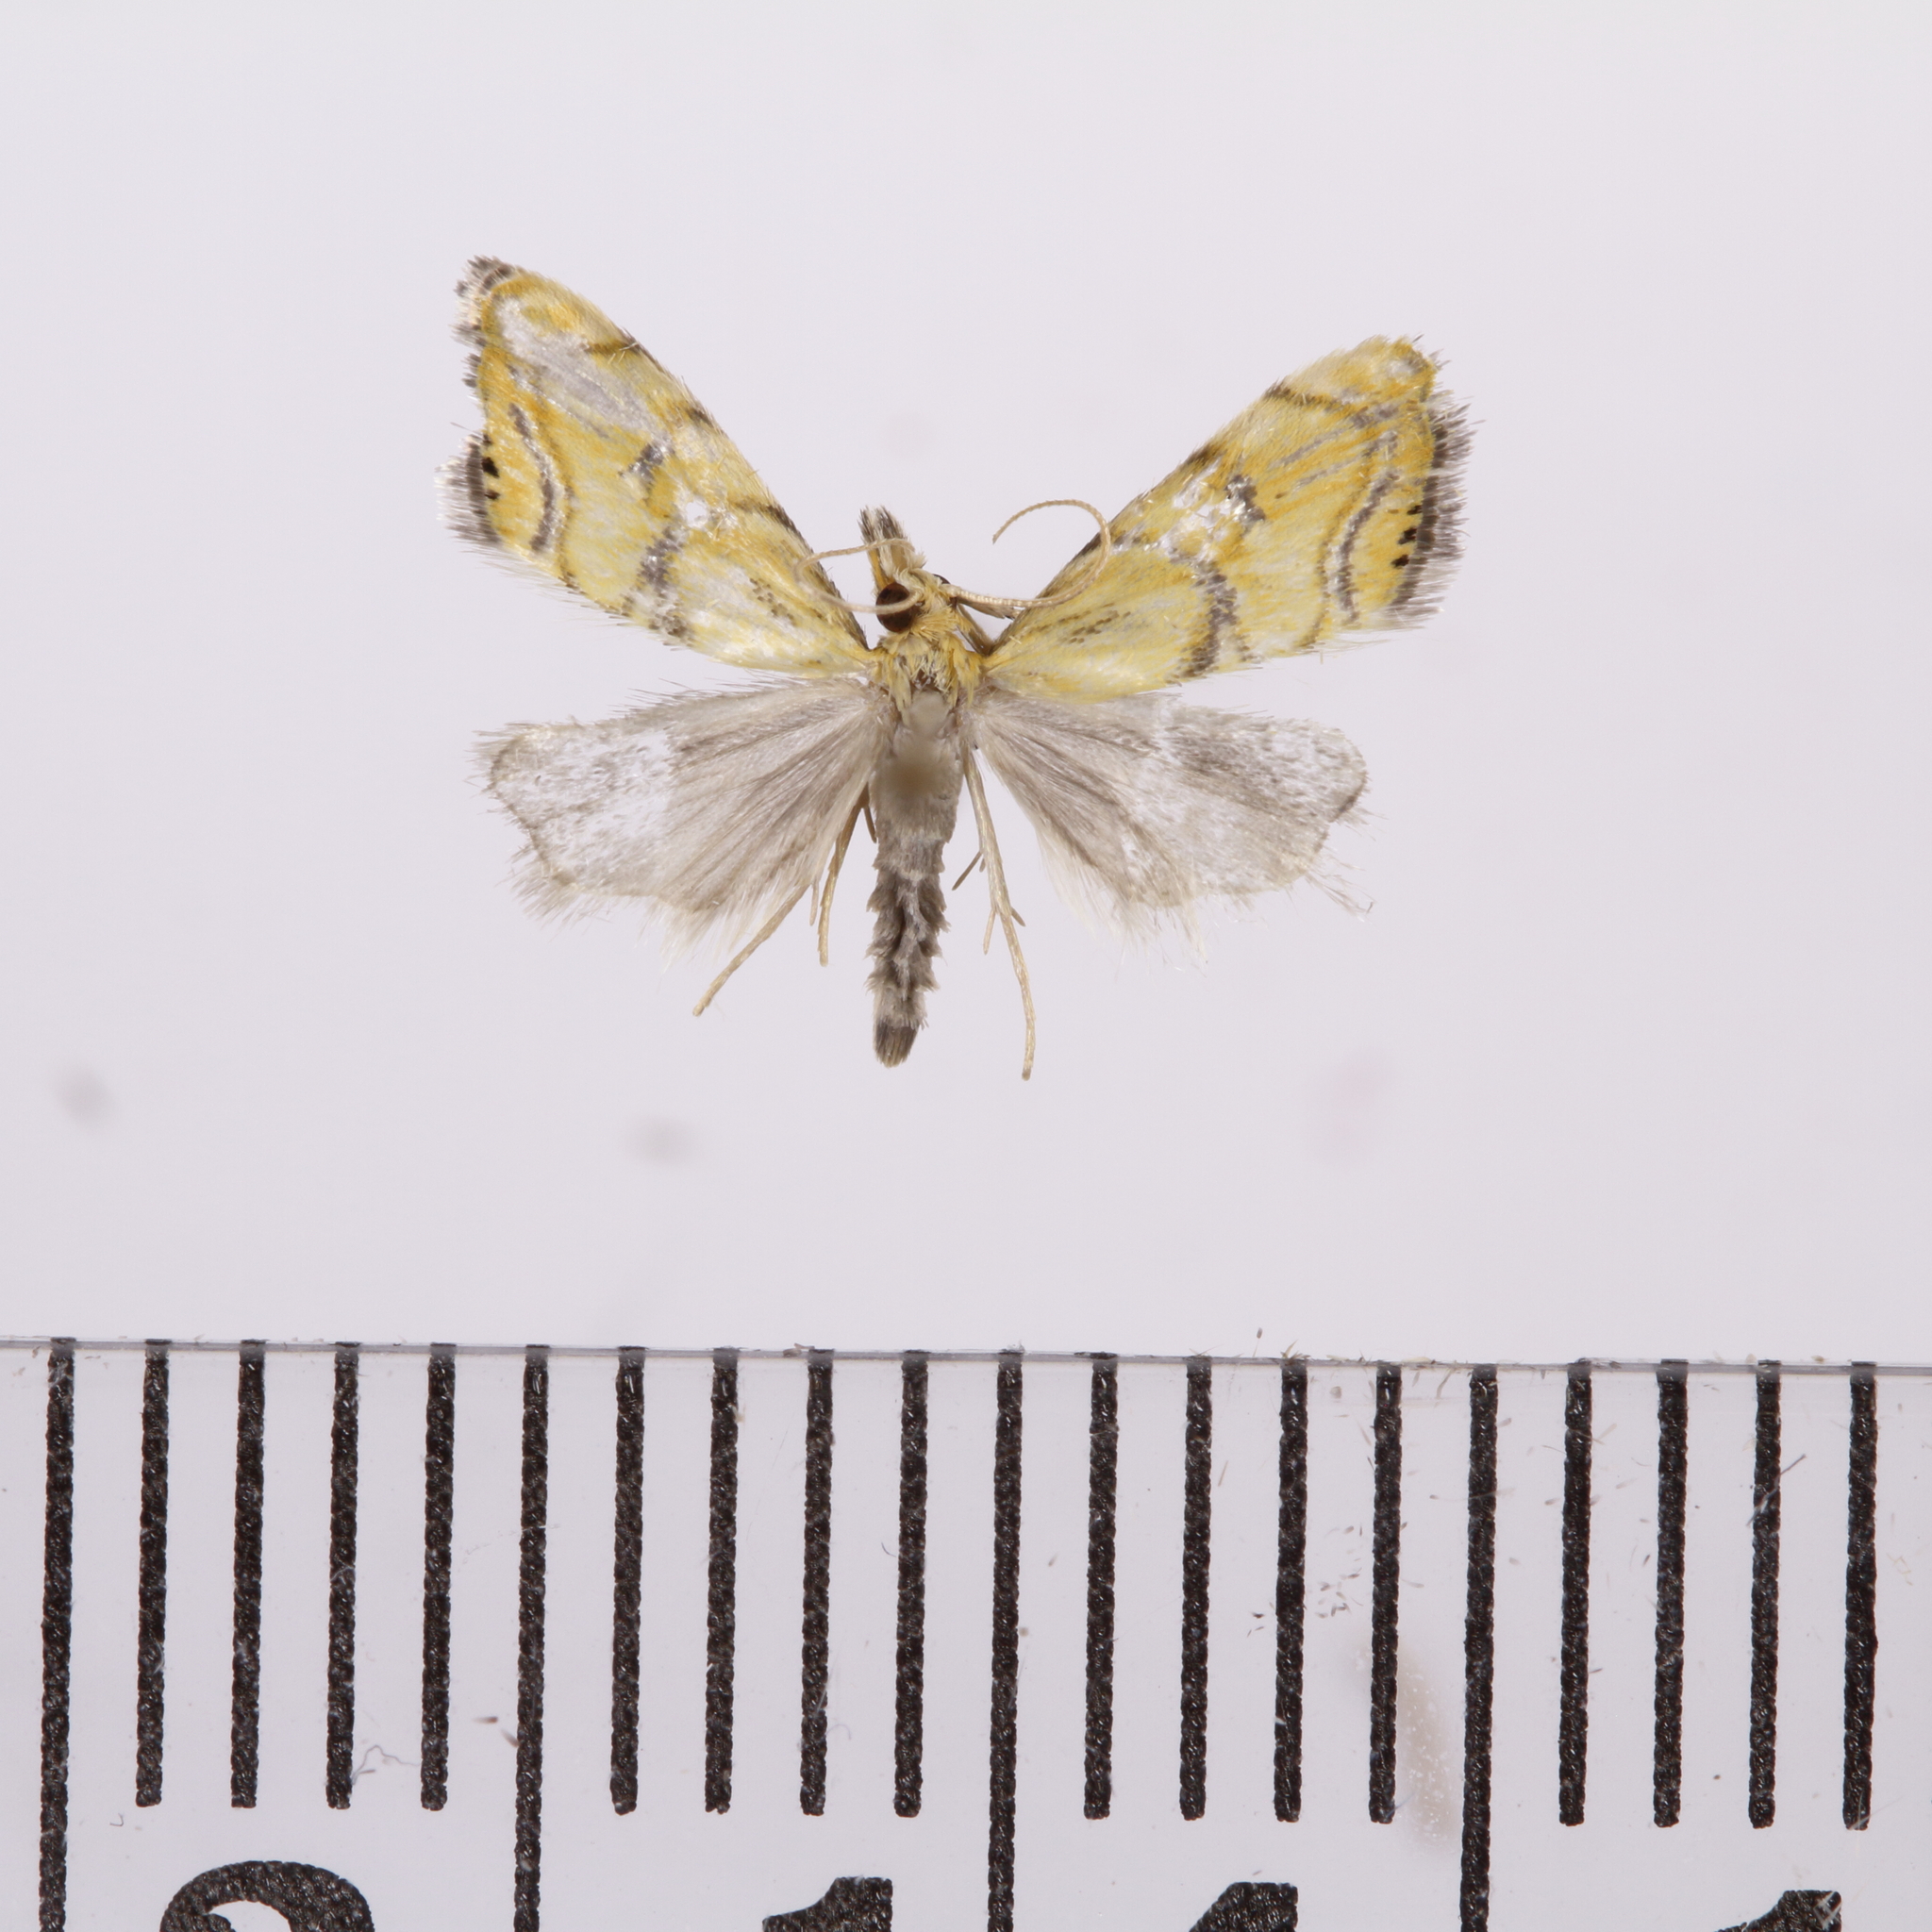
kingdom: Animalia
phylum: Arthropoda
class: Insecta
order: Lepidoptera
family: Crambidae
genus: Glaucocharis
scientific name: Glaucocharis auriscriptella
